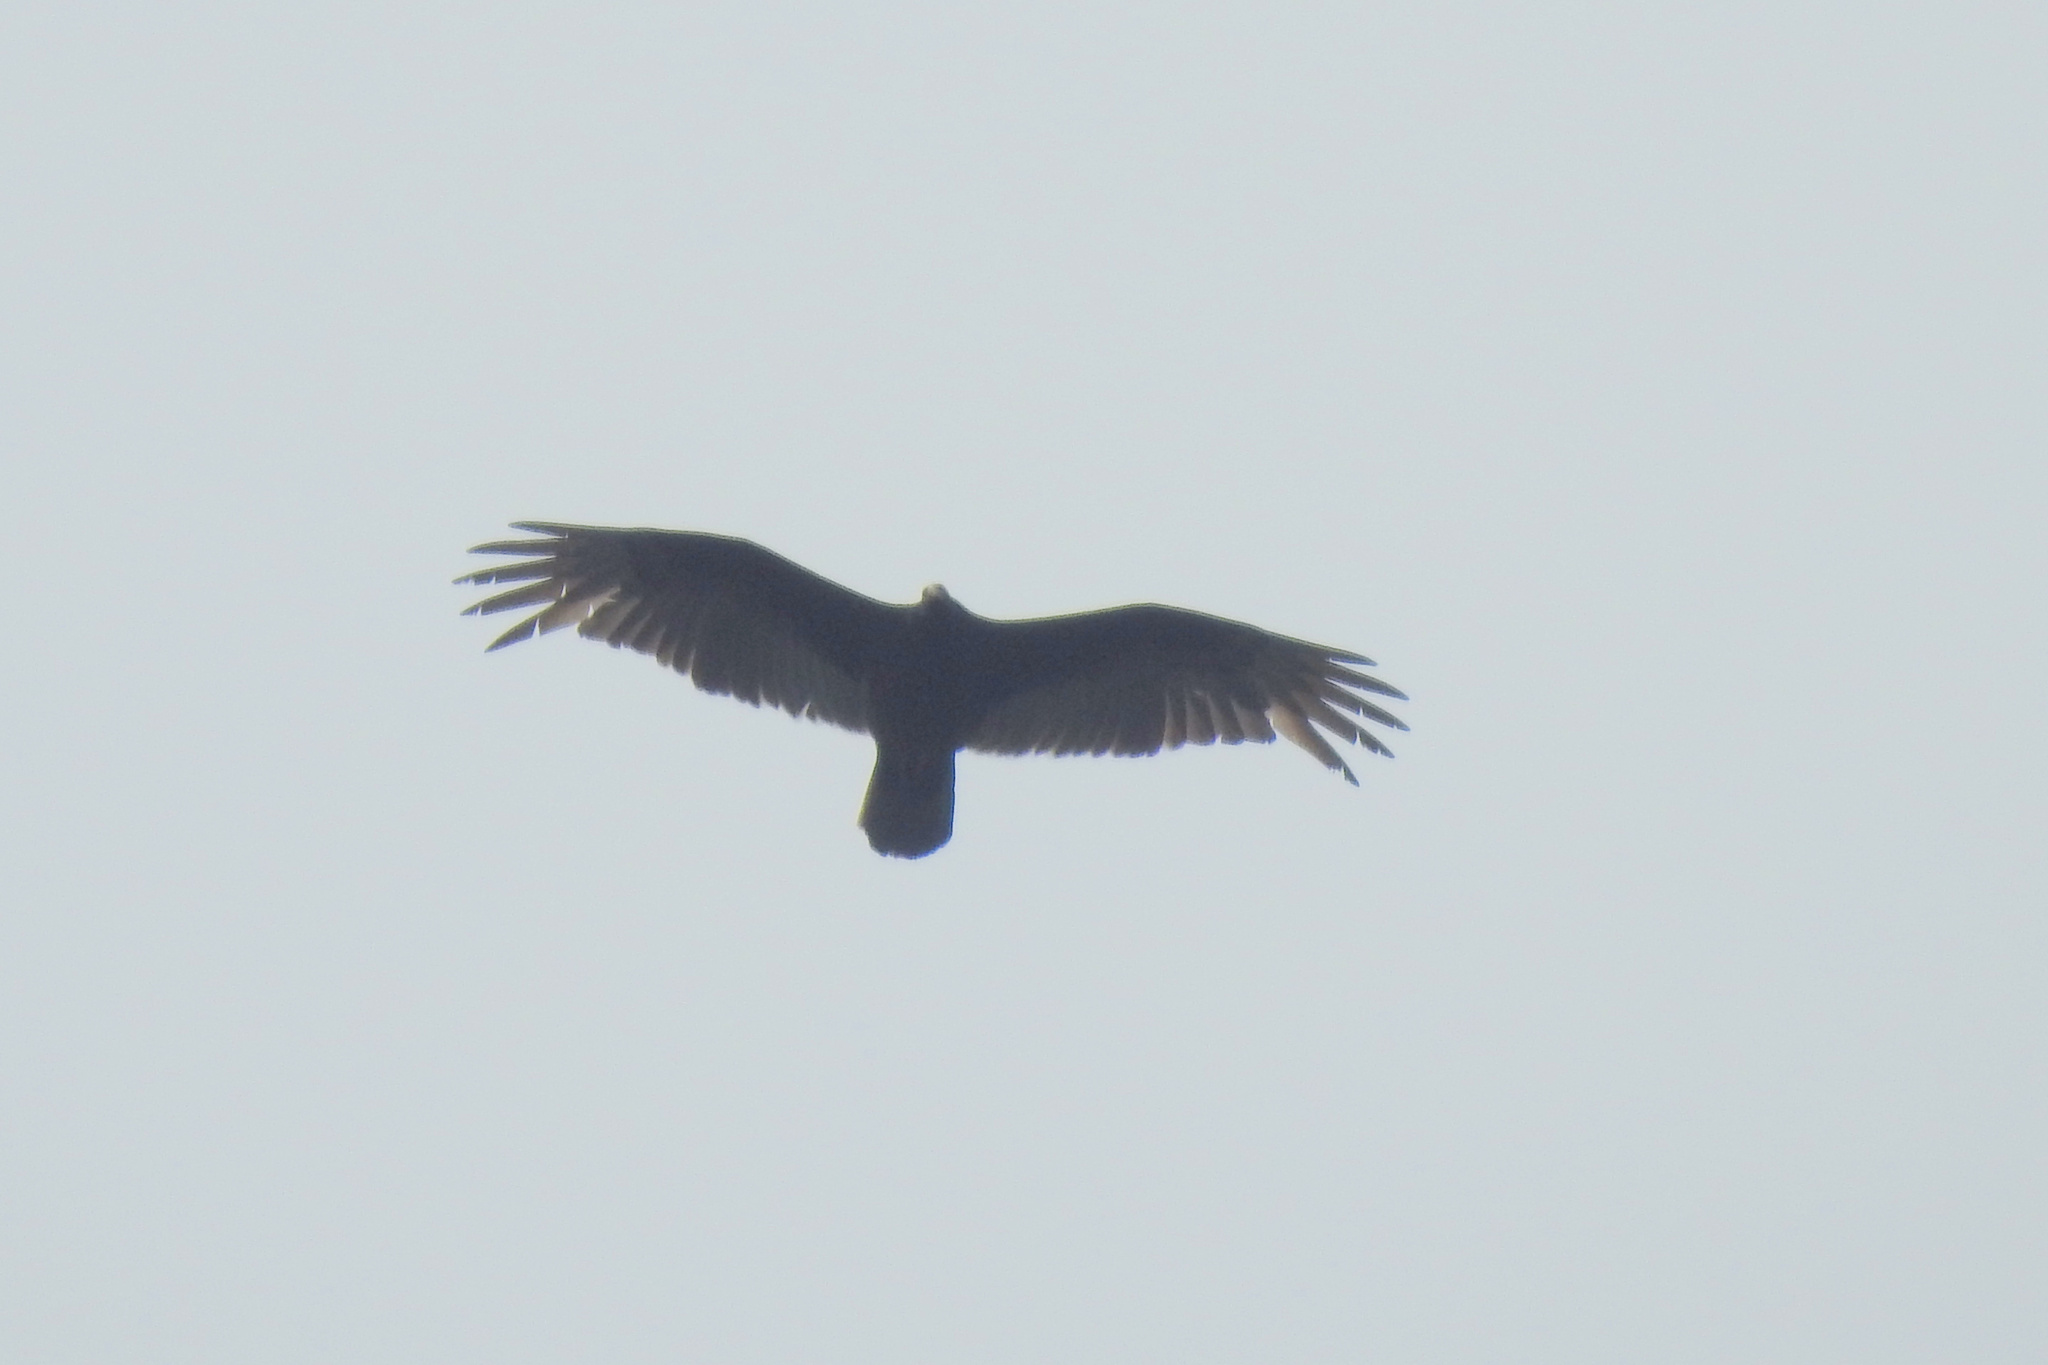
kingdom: Animalia
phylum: Chordata
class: Aves
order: Accipitriformes
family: Cathartidae
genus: Cathartes
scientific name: Cathartes aura
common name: Turkey vulture
